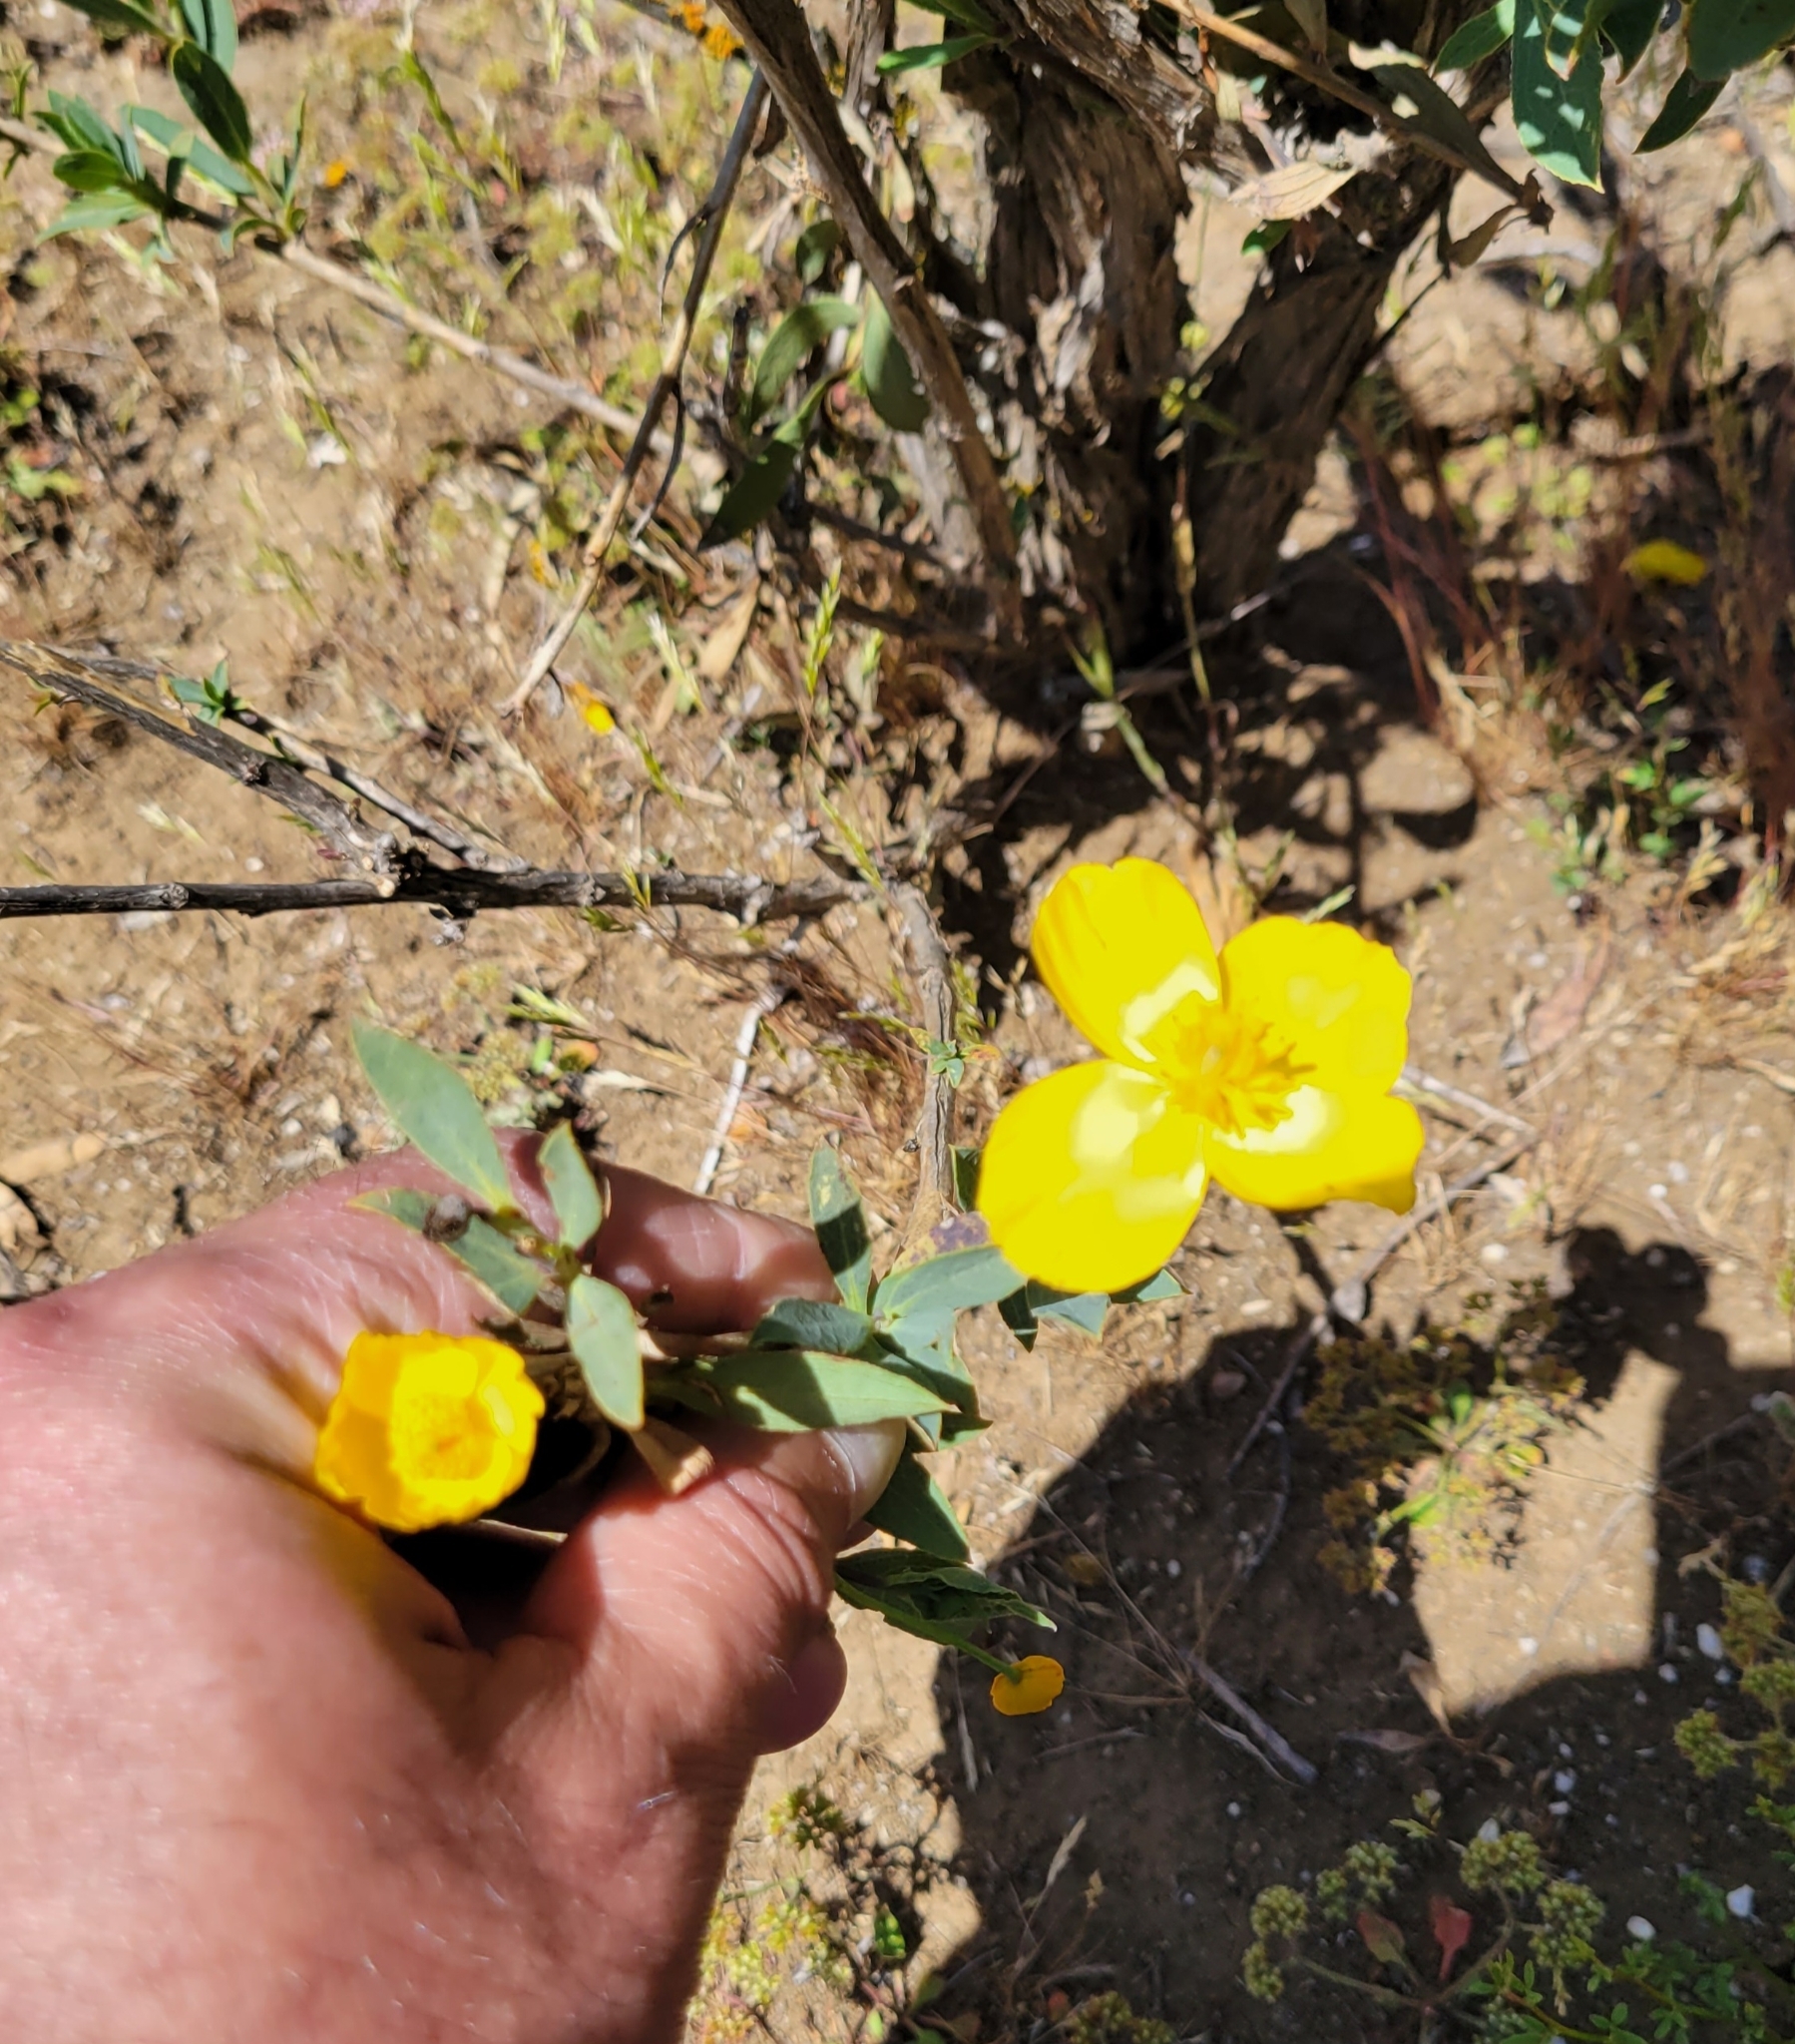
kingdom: Plantae
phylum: Tracheophyta
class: Magnoliopsida
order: Ranunculales
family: Papaveraceae
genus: Dendromecon
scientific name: Dendromecon rigida
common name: Tree poppy
